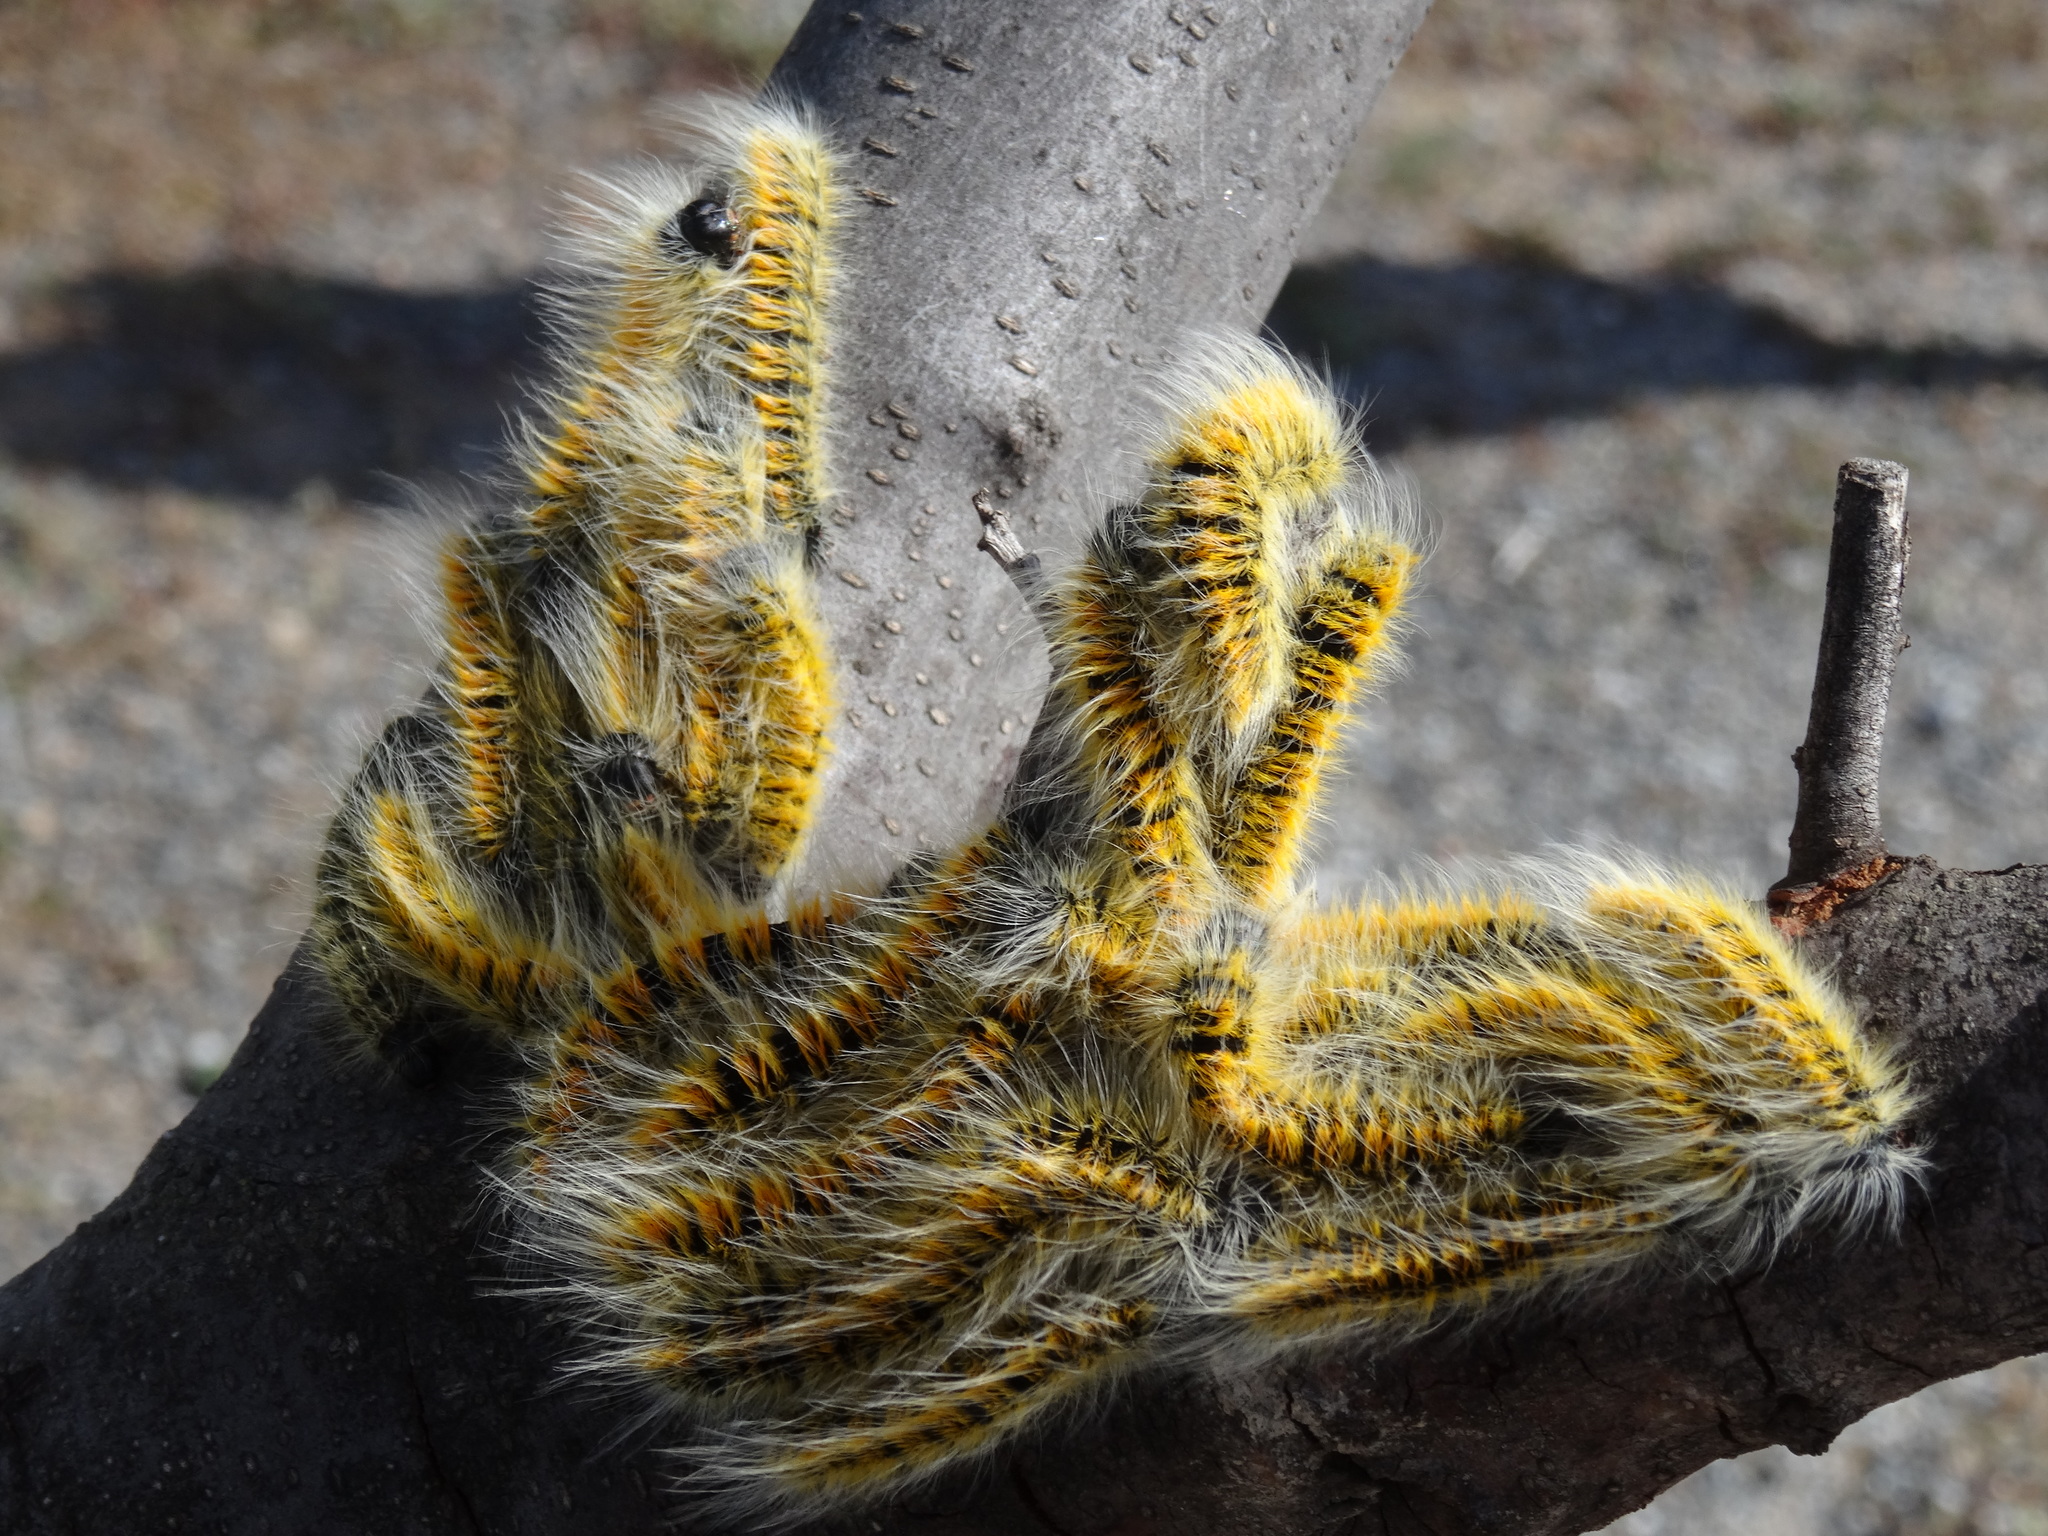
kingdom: Animalia
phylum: Arthropoda
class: Insecta
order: Lepidoptera
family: Lasiocampidae
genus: Bombycomorpha
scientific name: Bombycomorpha bifascia
